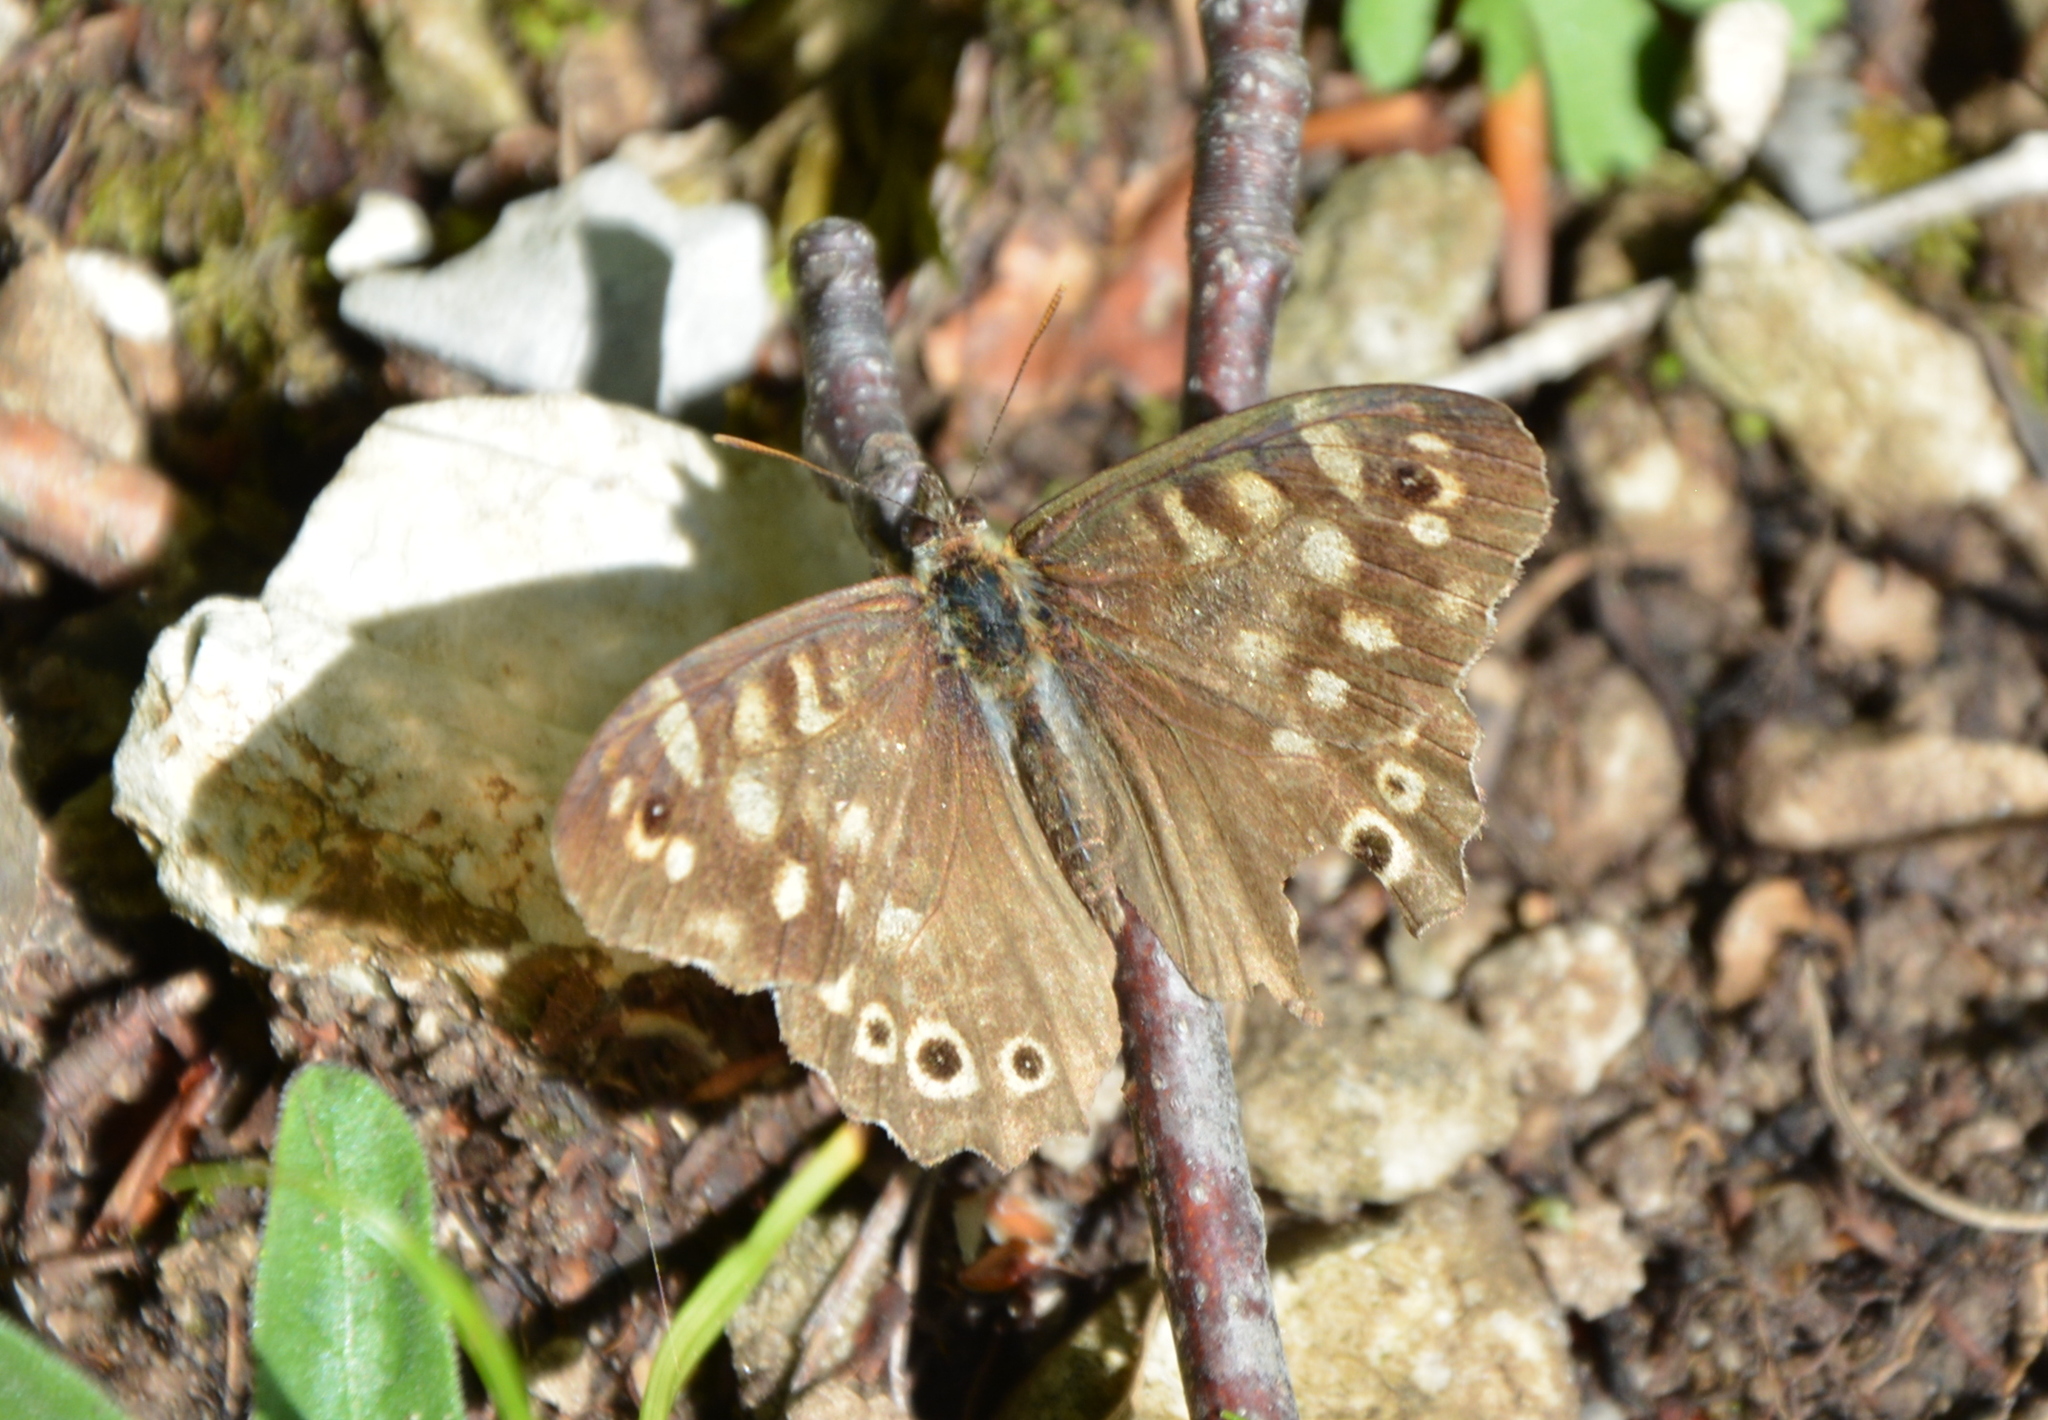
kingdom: Animalia
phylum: Arthropoda
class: Insecta
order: Lepidoptera
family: Nymphalidae
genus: Pararge
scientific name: Pararge aegeria
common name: Speckled wood
